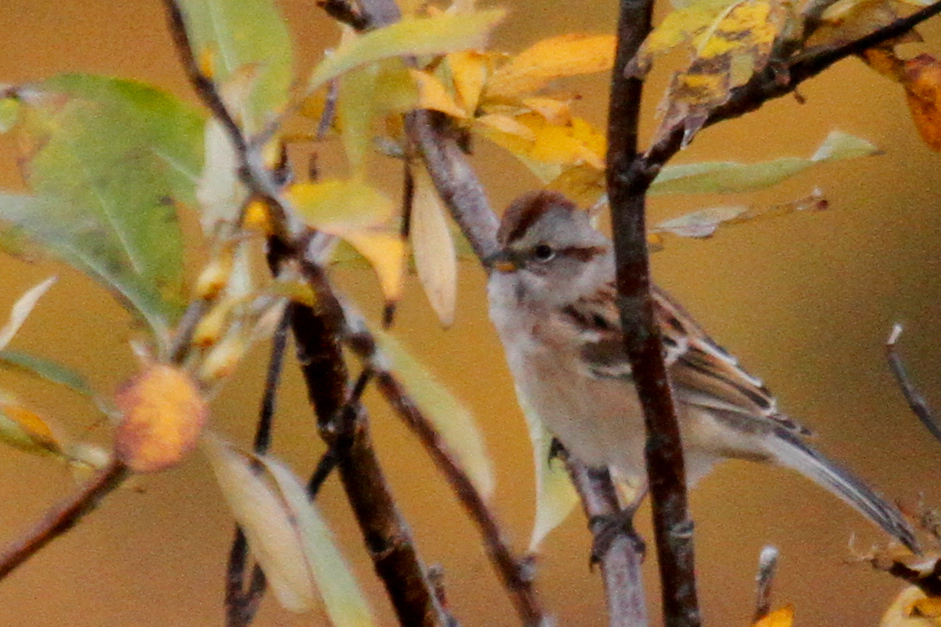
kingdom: Animalia
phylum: Chordata
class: Aves
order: Passeriformes
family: Passerellidae
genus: Spizelloides
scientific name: Spizelloides arborea
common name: American tree sparrow
